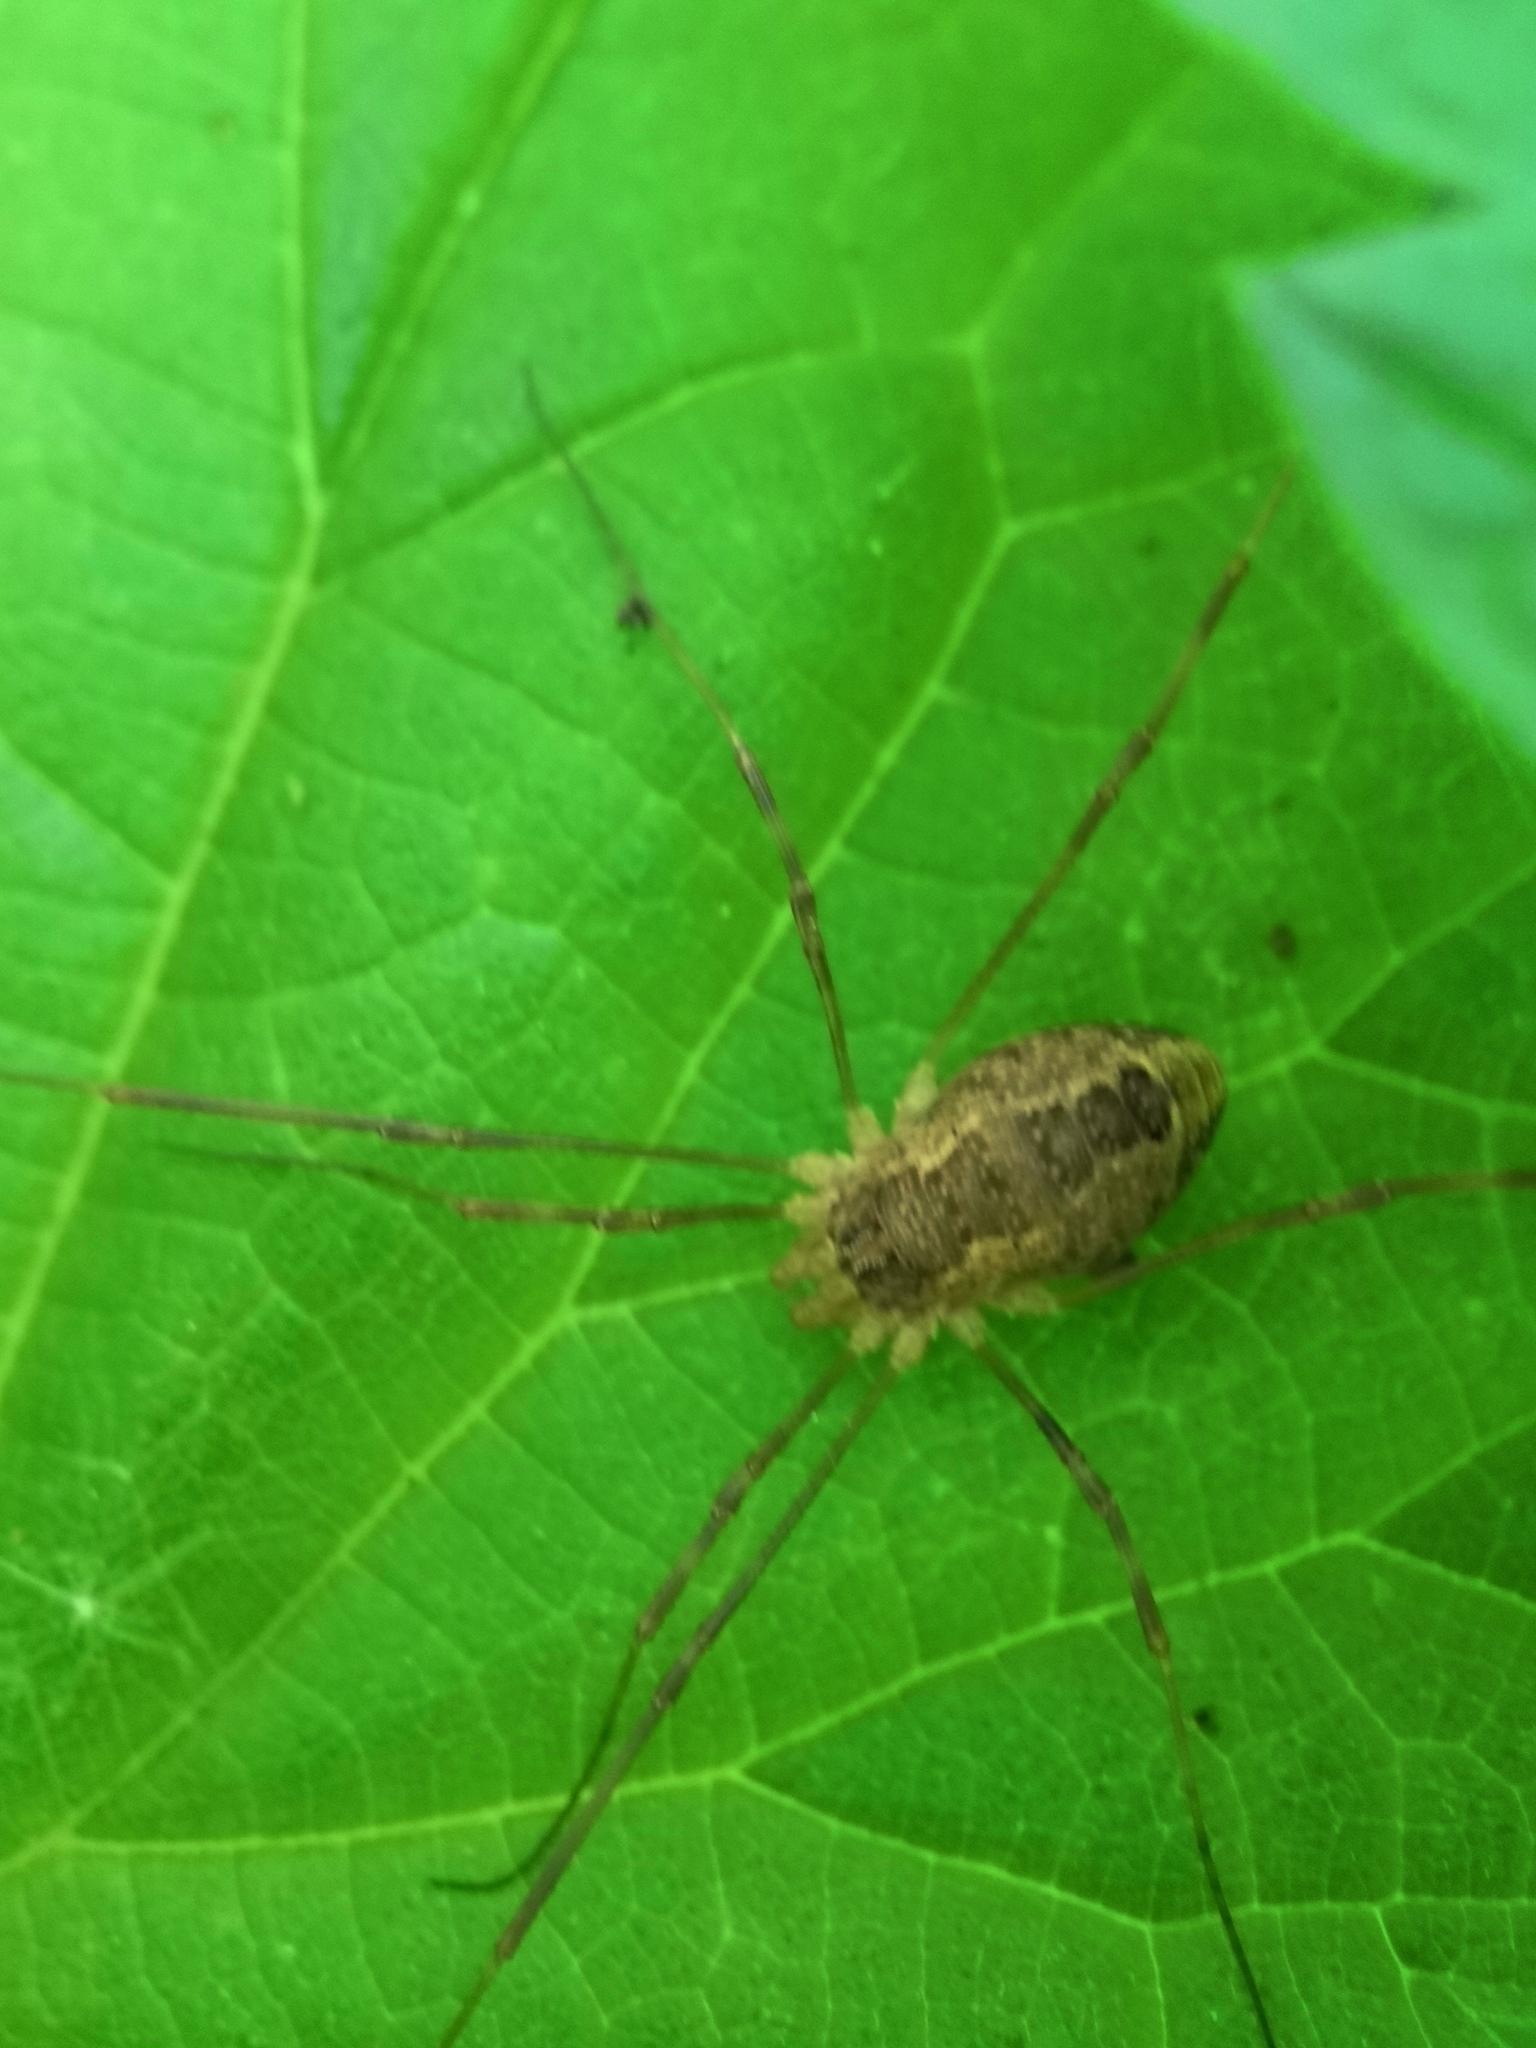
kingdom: Animalia
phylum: Arthropoda
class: Arachnida
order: Opiliones
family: Phalangiidae
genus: Rilaena
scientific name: Rilaena triangularis
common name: Spring harvestman
